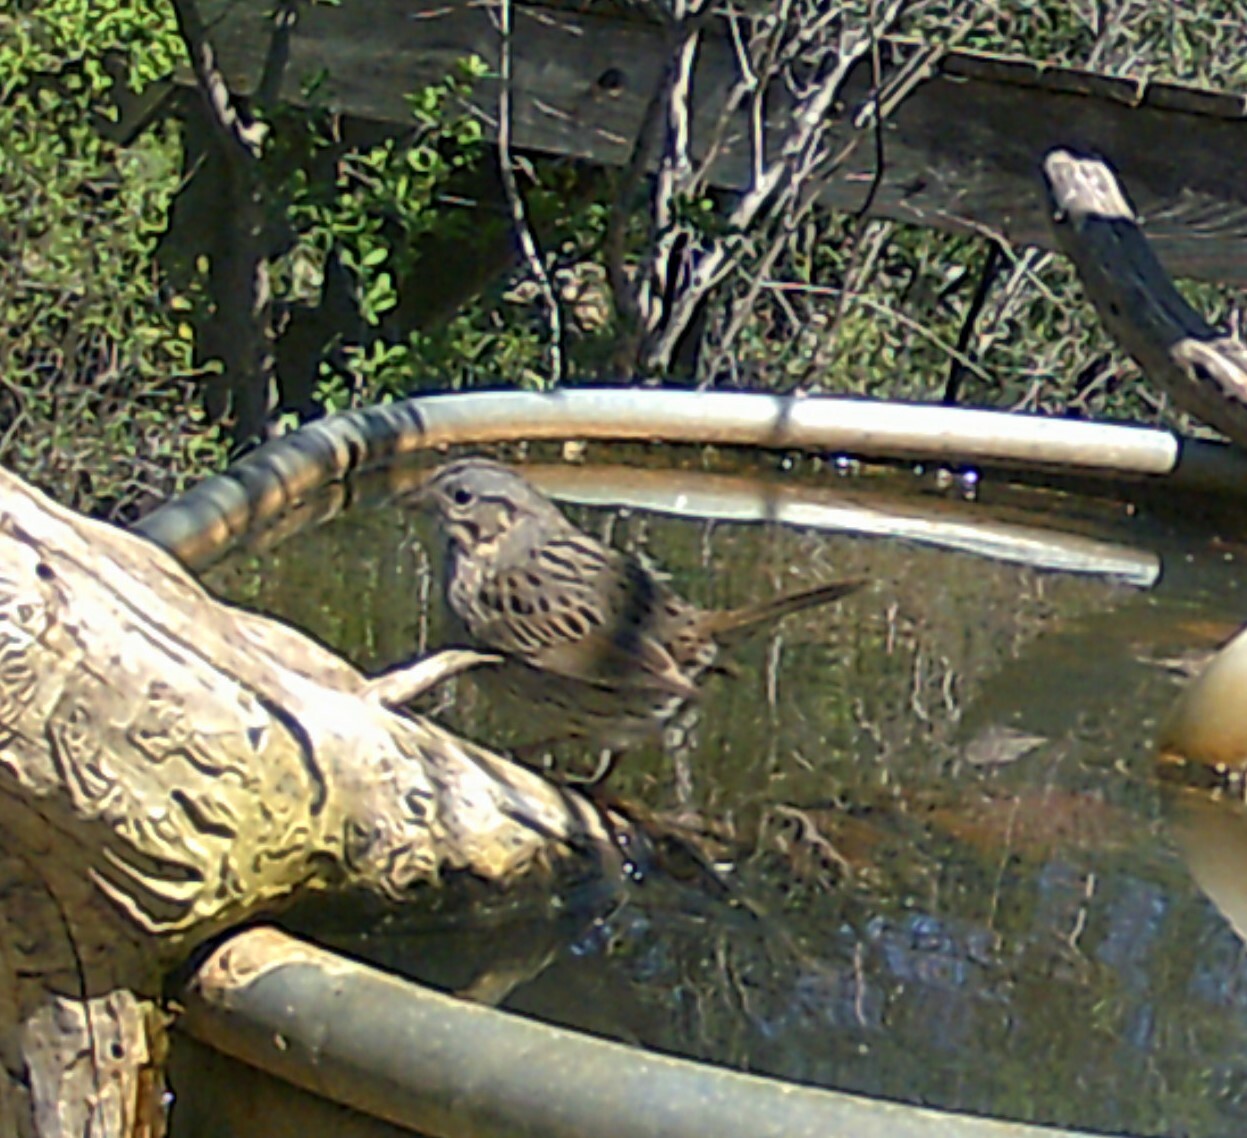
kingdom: Animalia
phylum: Chordata
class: Aves
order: Passeriformes
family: Passerellidae
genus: Melospiza
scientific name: Melospiza lincolnii
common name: Lincoln's sparrow
